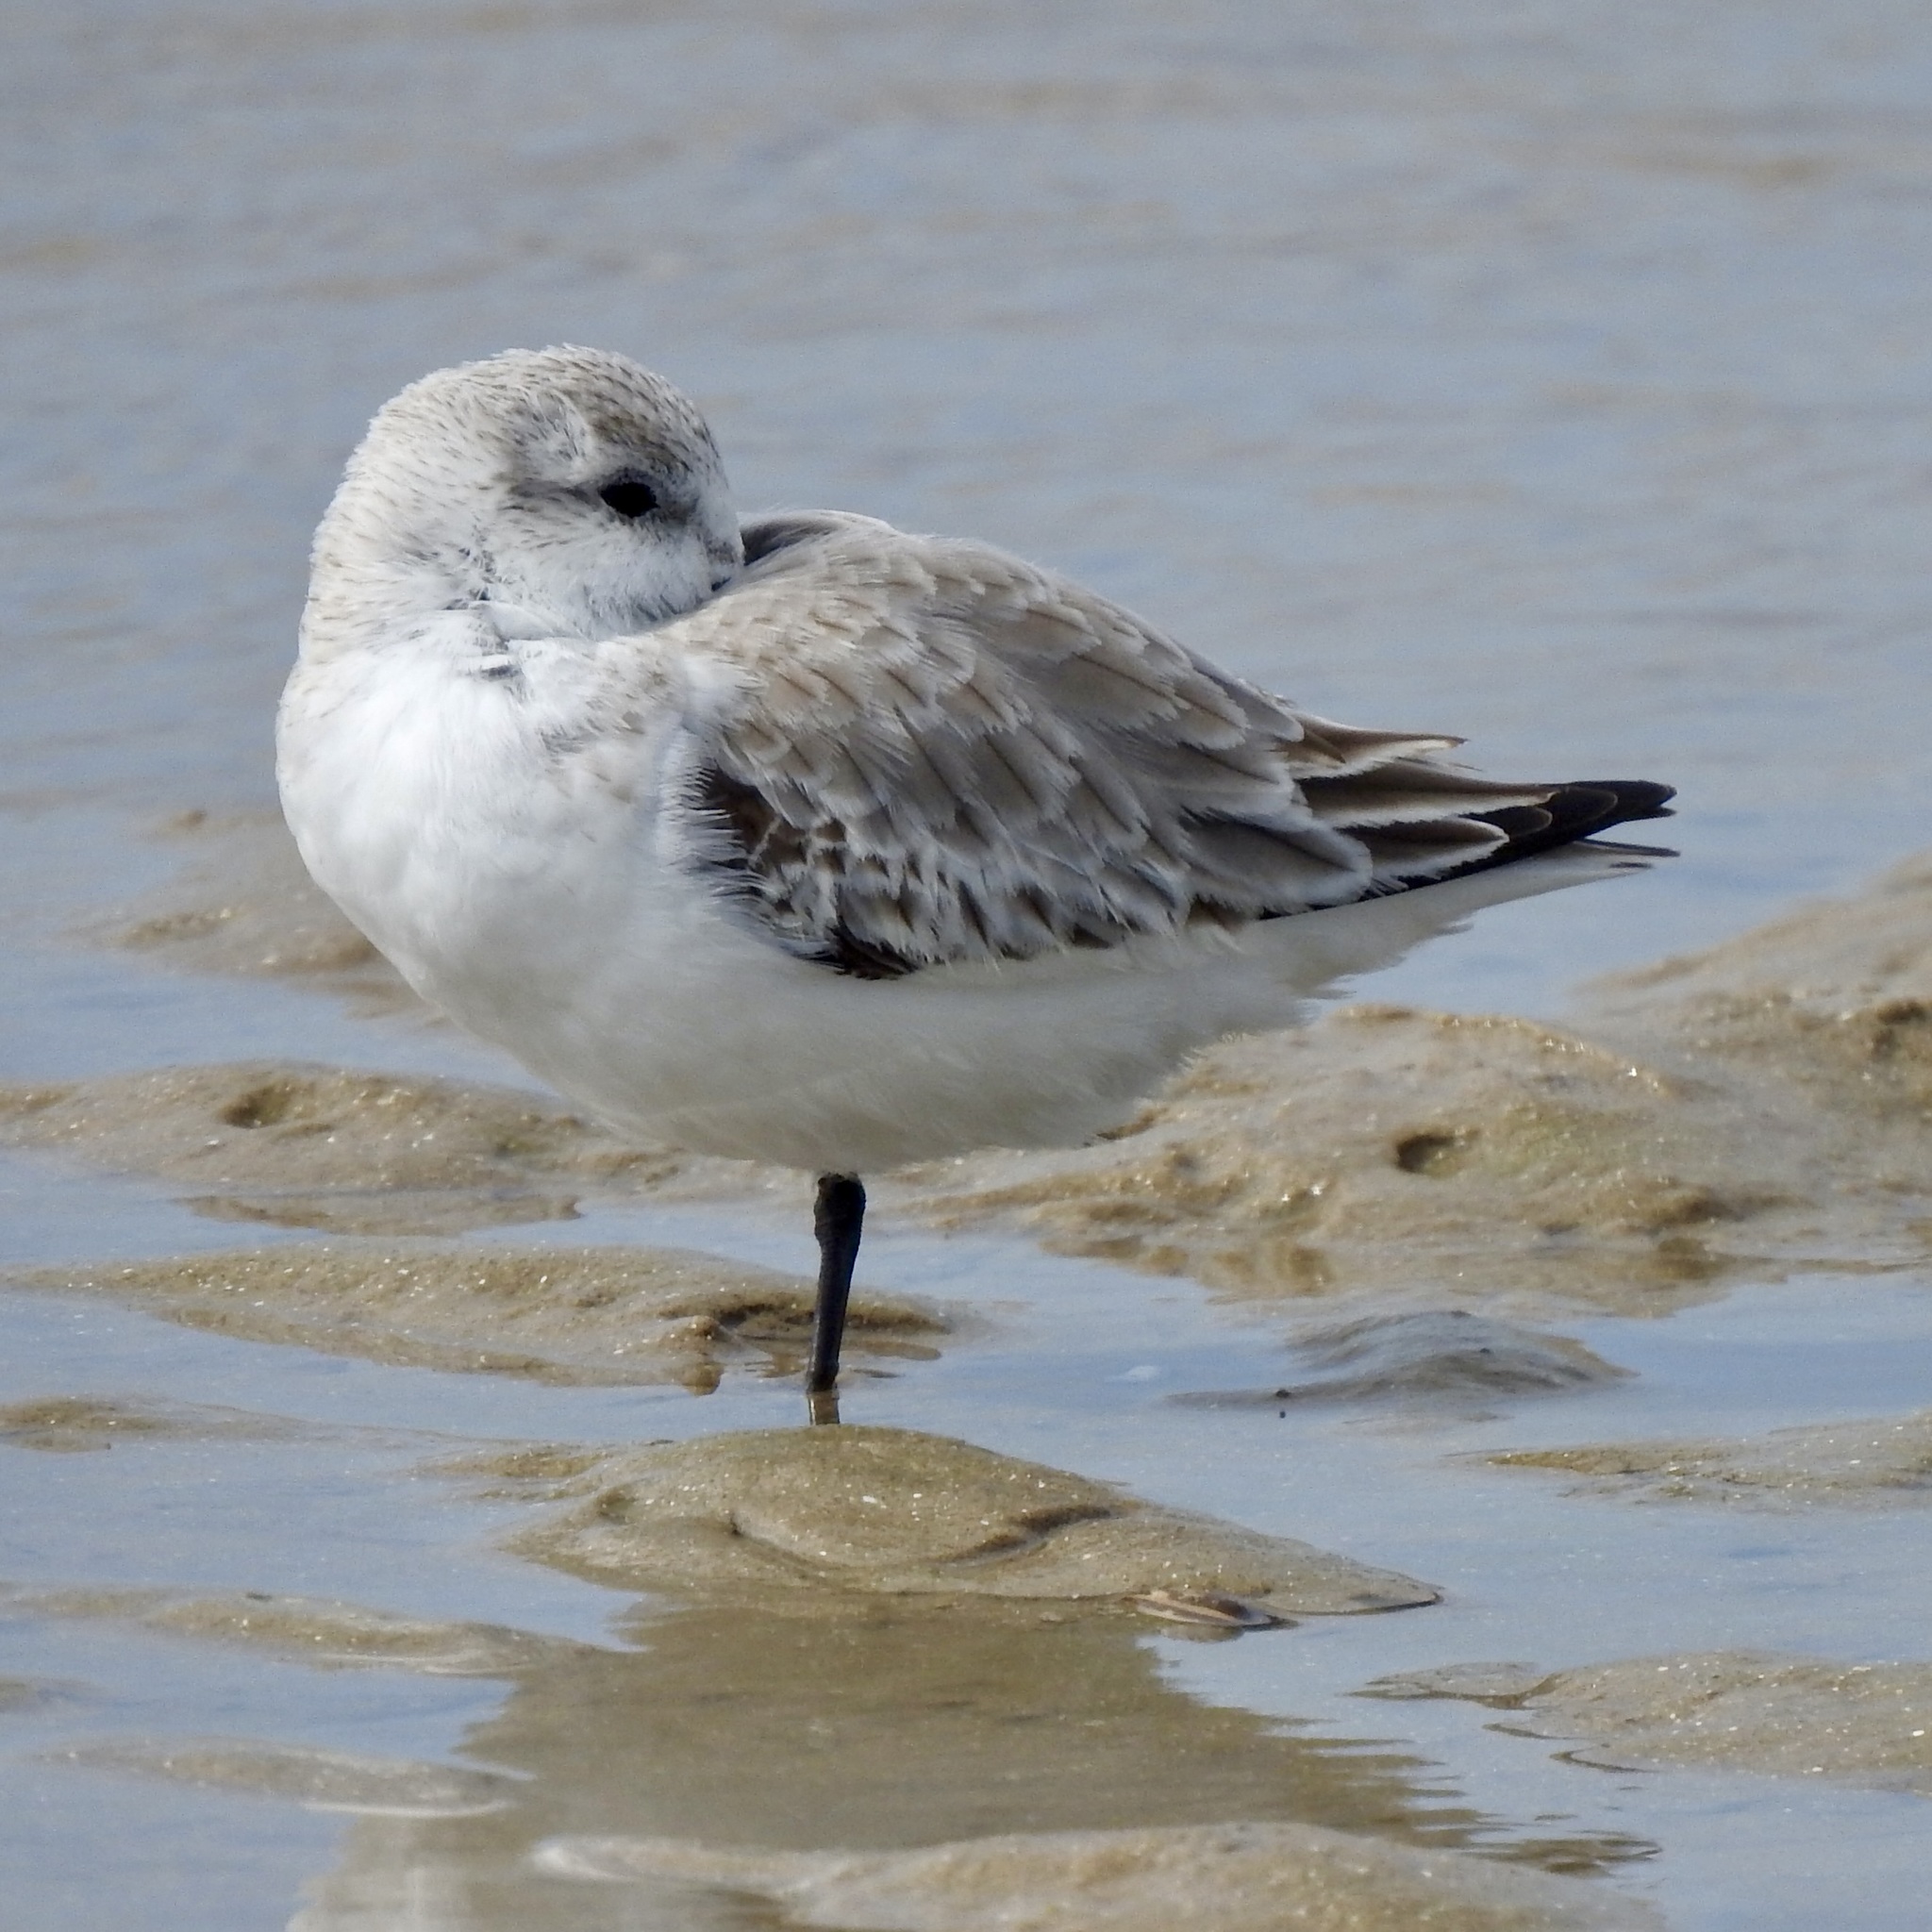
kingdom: Animalia
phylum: Chordata
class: Aves
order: Charadriiformes
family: Scolopacidae
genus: Calidris
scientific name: Calidris alba
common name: Sanderling
